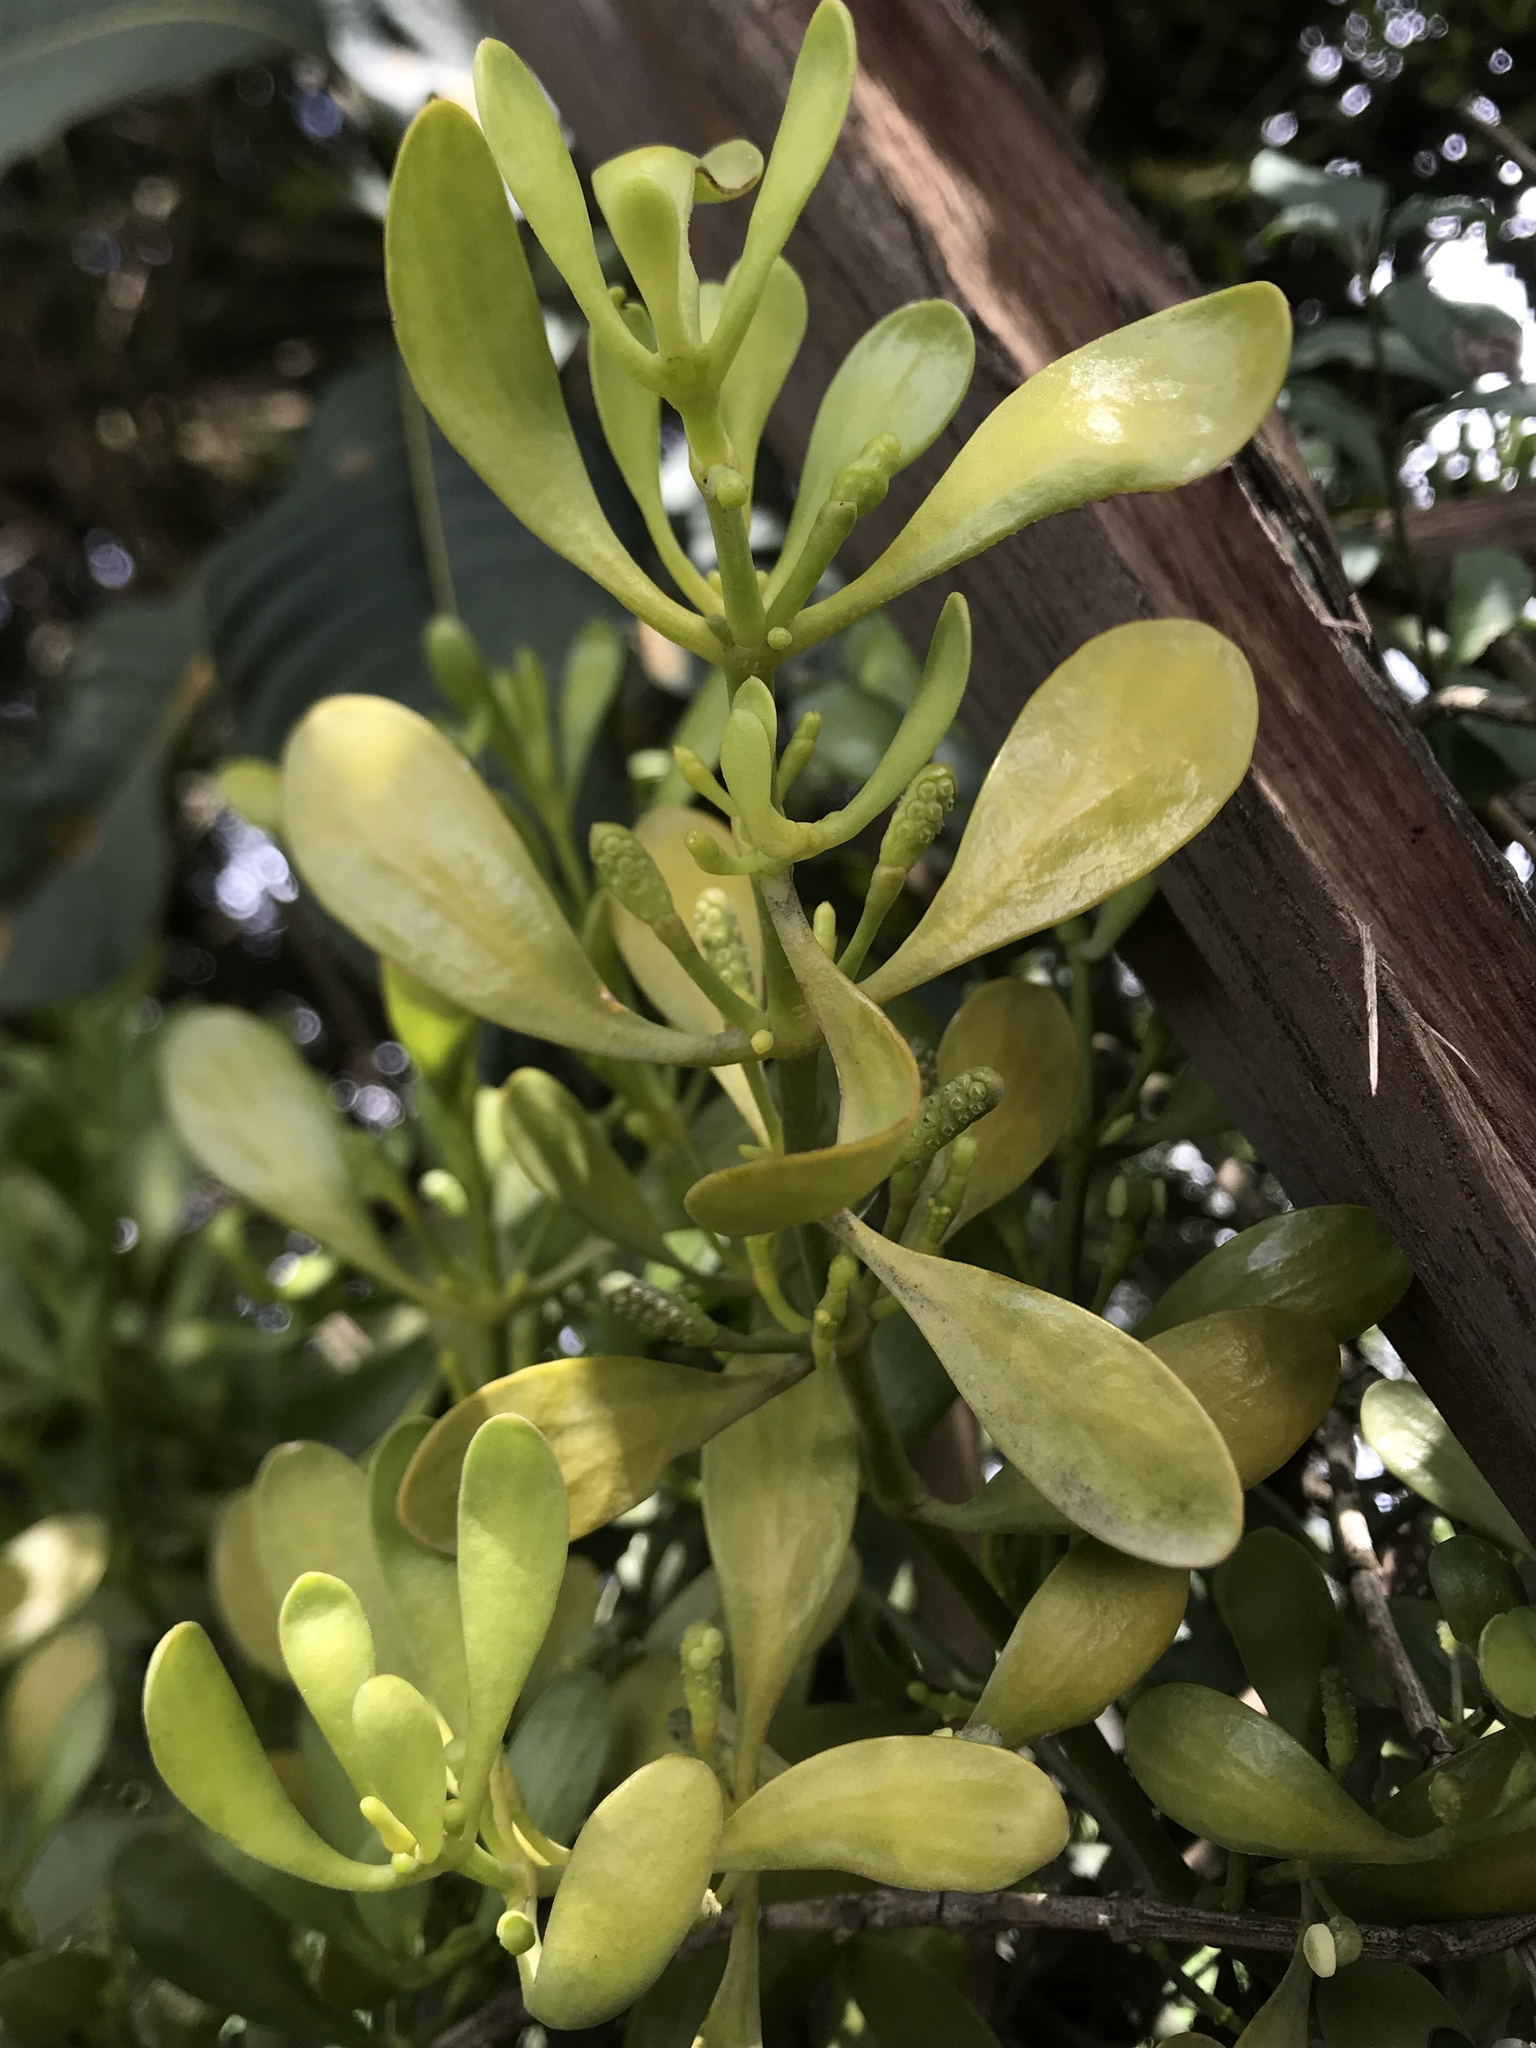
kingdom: Plantae
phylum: Tracheophyta
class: Magnoliopsida
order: Santalales
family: Viscaceae
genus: Dendrophthora
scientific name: Dendrophthora clavata
